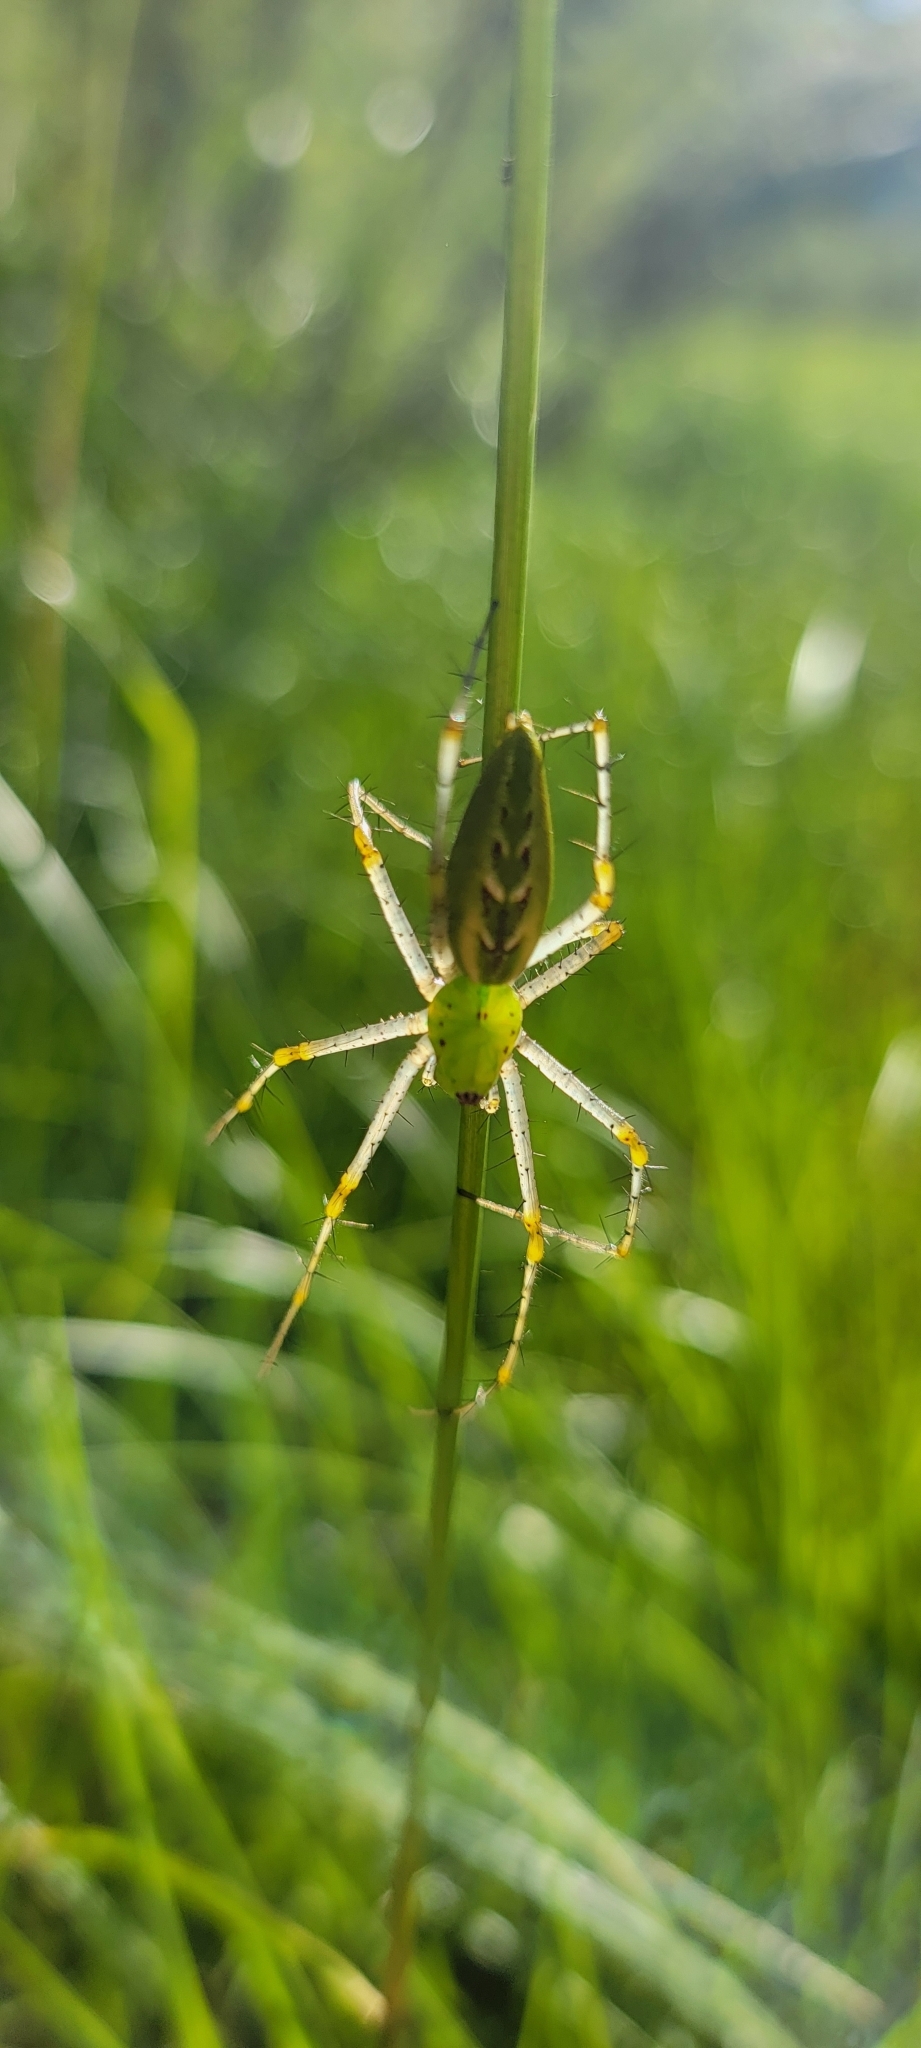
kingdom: Animalia
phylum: Arthropoda
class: Arachnida
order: Araneae
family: Oxyopidae
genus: Peucetia
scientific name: Peucetia viridans
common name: Lynx spiders
